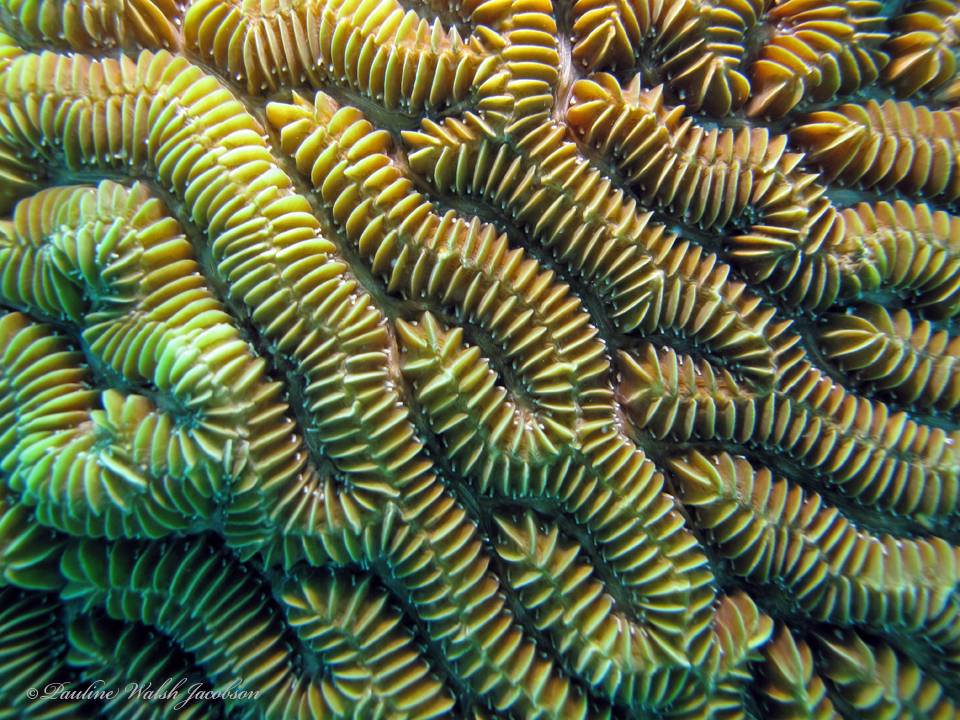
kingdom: Animalia
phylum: Cnidaria
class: Anthozoa
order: Scleractinia
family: Meandrinidae
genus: Meandrina
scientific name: Meandrina meandrites
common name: Maze coral
